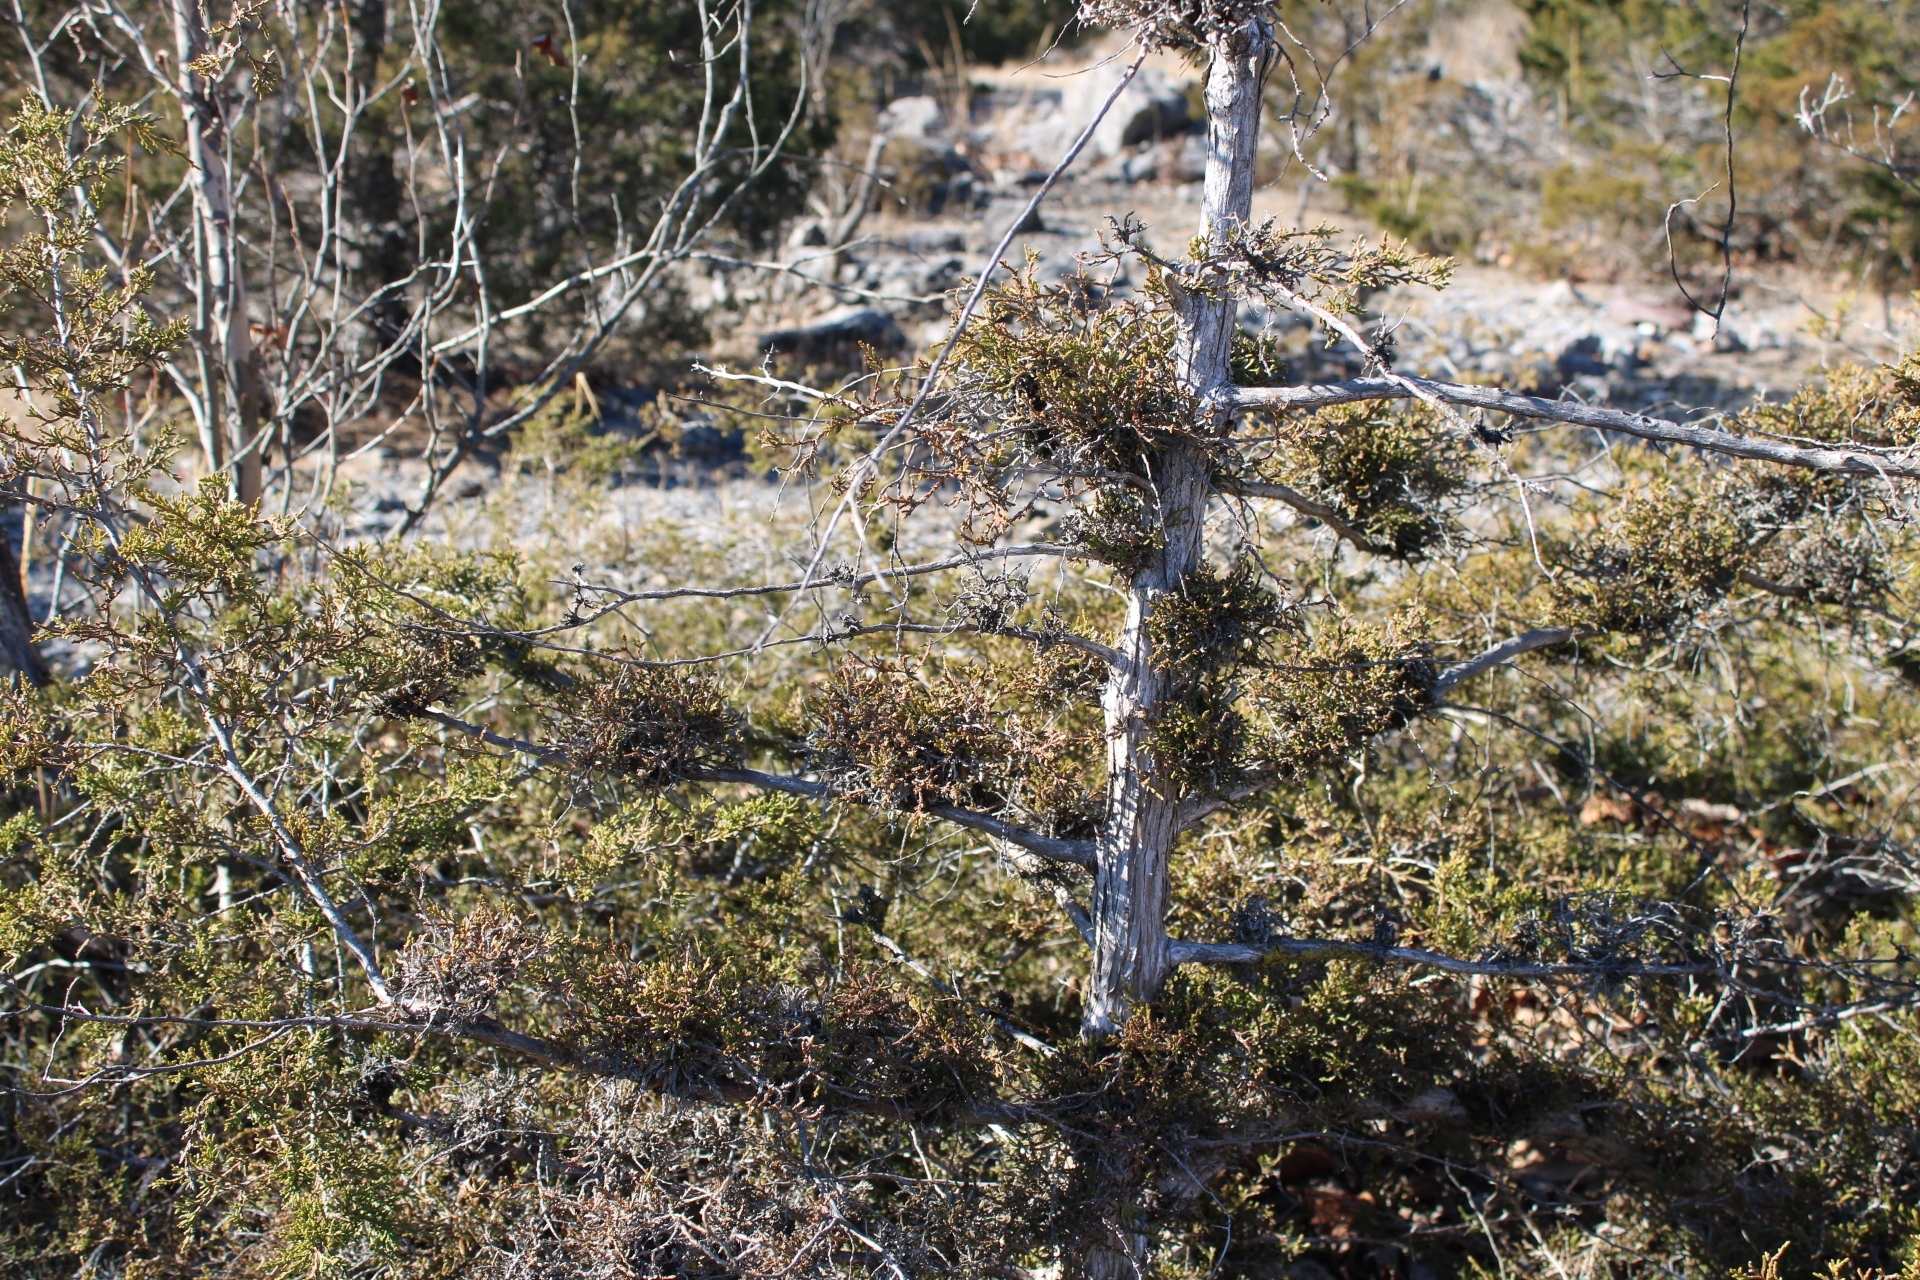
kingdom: Plantae
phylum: Tracheophyta
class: Pinopsida
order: Pinales
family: Cupressaceae
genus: Juniperus
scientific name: Juniperus virginiana
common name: Red juniper
